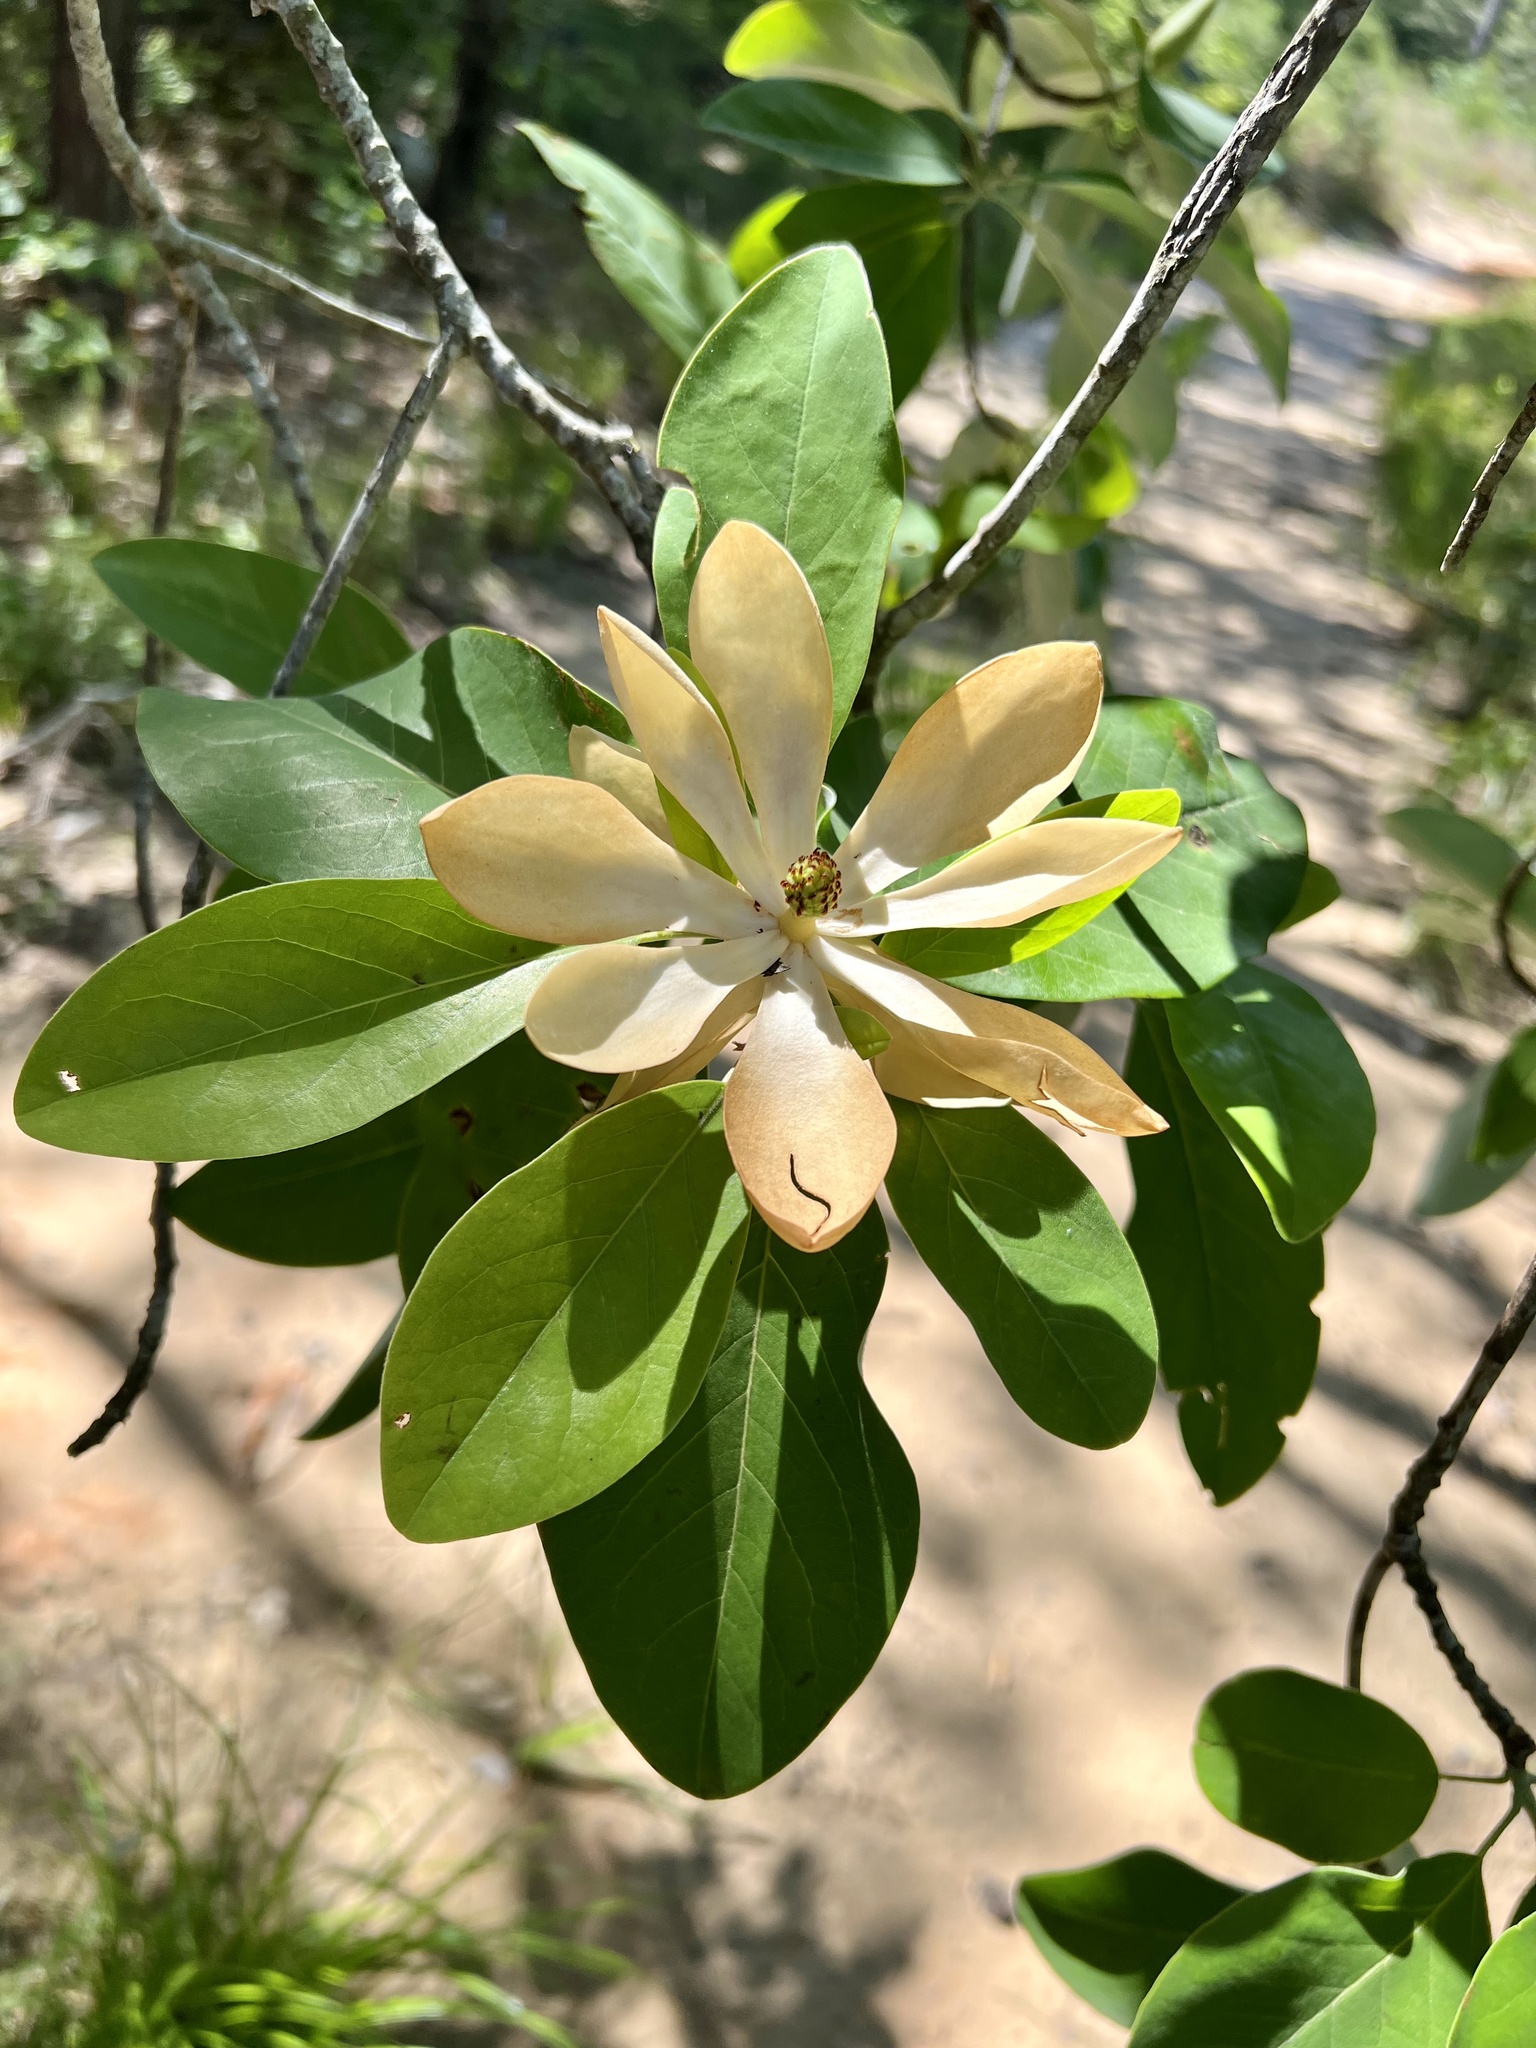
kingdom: Plantae
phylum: Tracheophyta
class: Magnoliopsida
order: Magnoliales
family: Magnoliaceae
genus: Magnolia
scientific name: Magnolia virginiana
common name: Swamp bay
